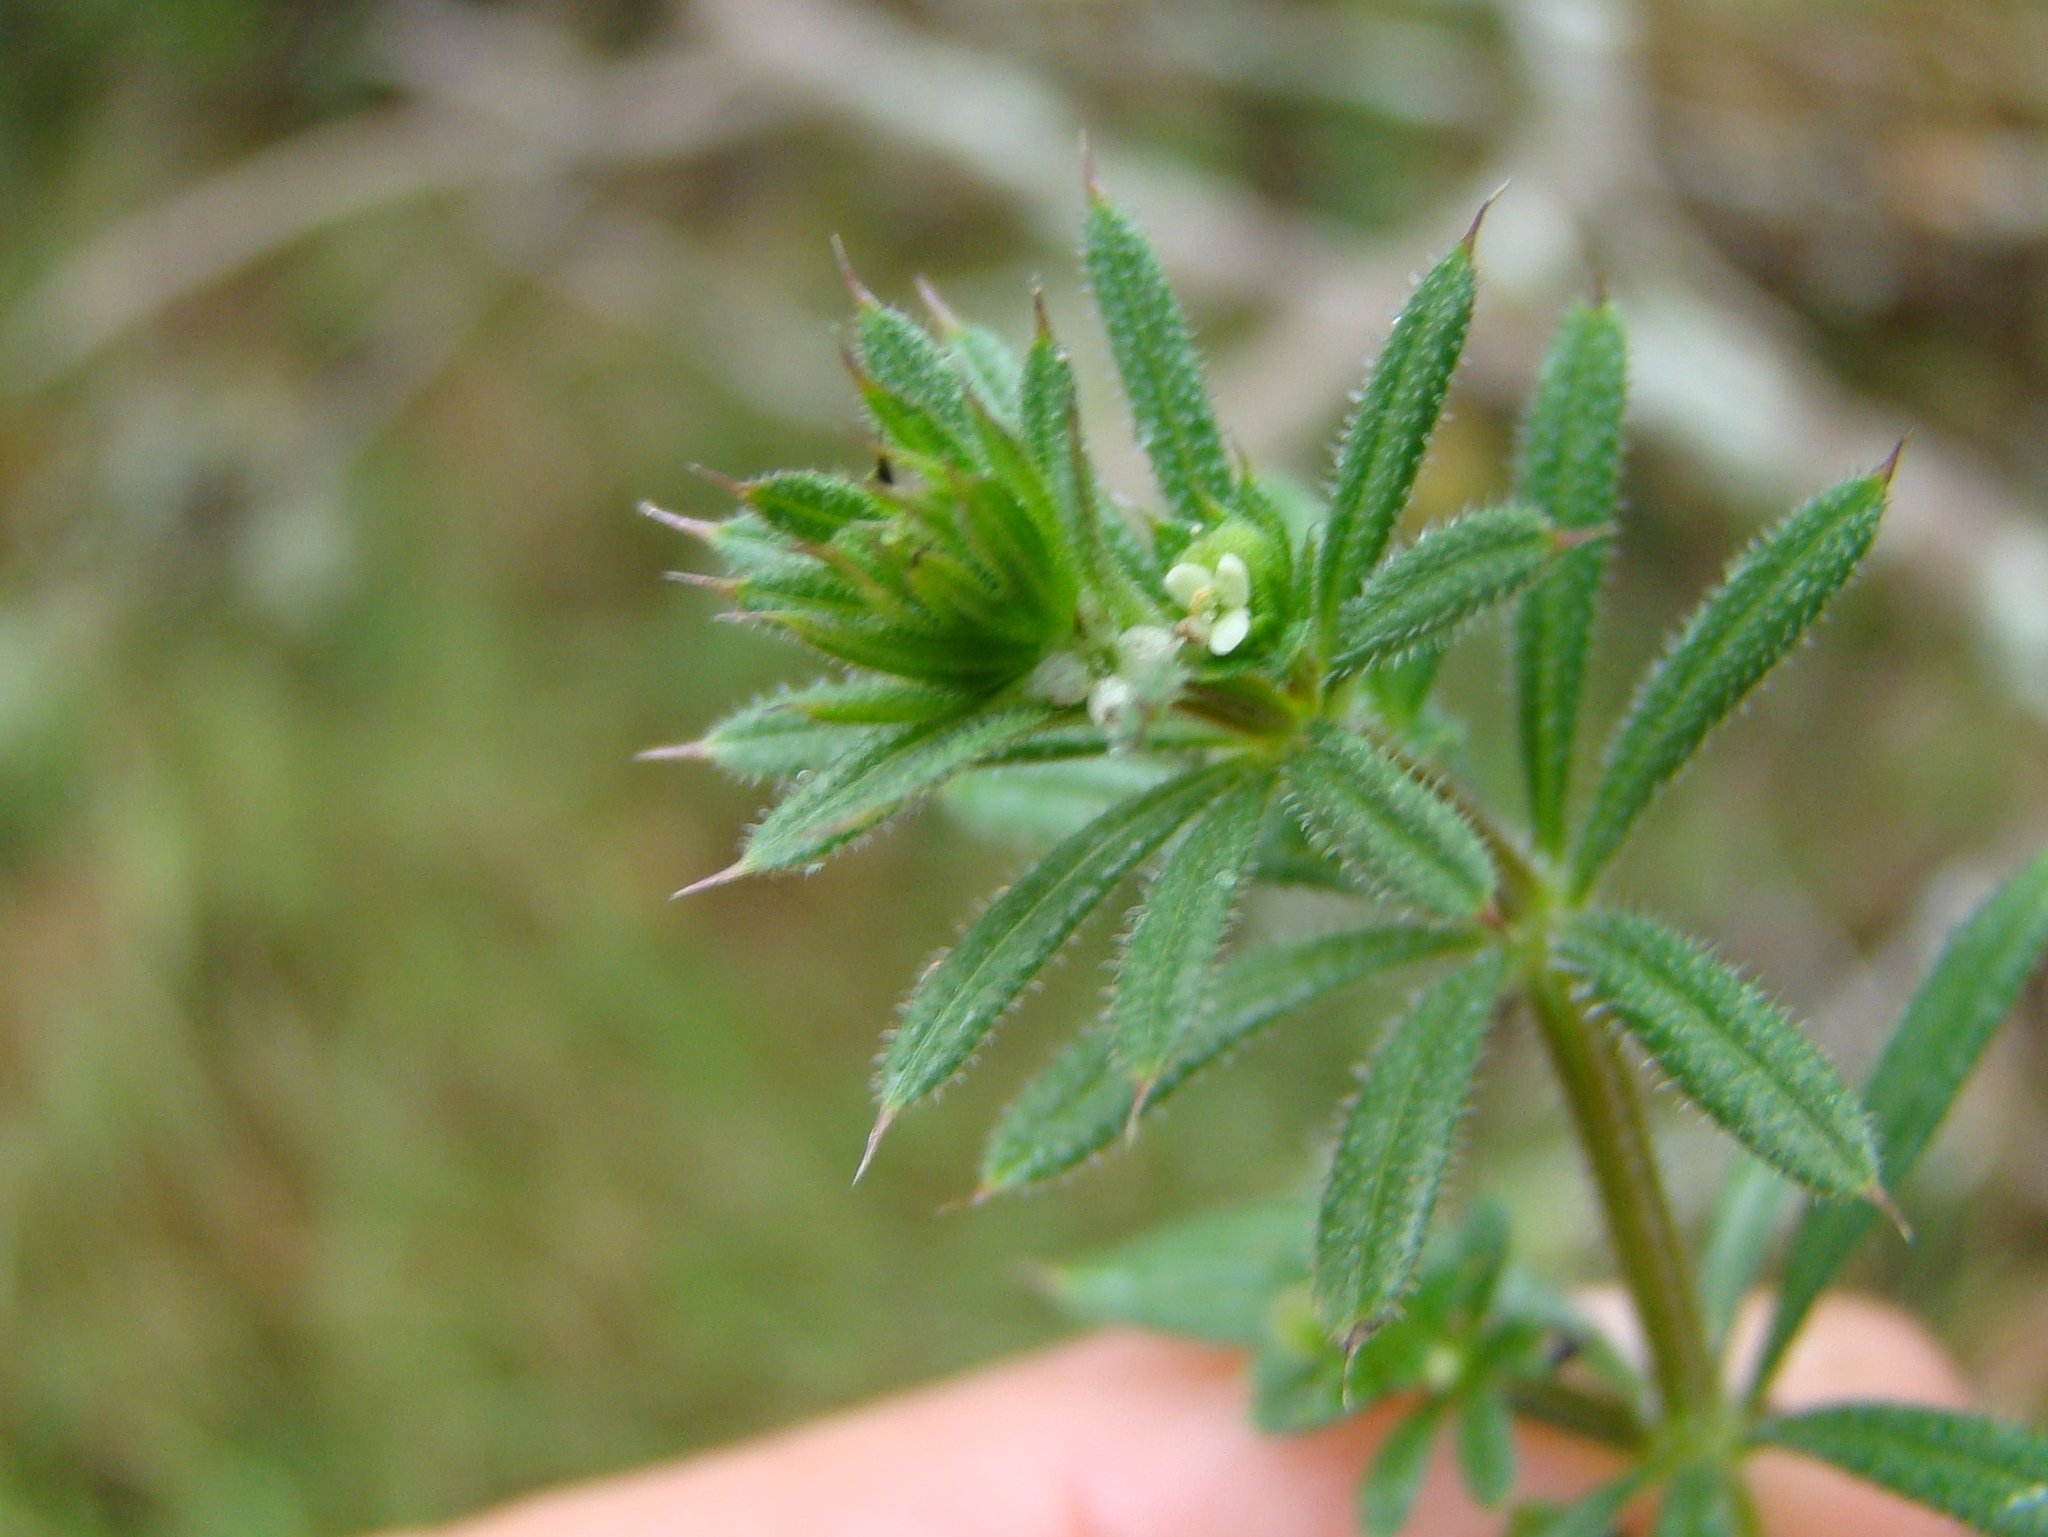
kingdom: Plantae
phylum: Tracheophyta
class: Magnoliopsida
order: Gentianales
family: Rubiaceae
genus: Galium
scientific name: Galium aparine
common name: Cleavers
